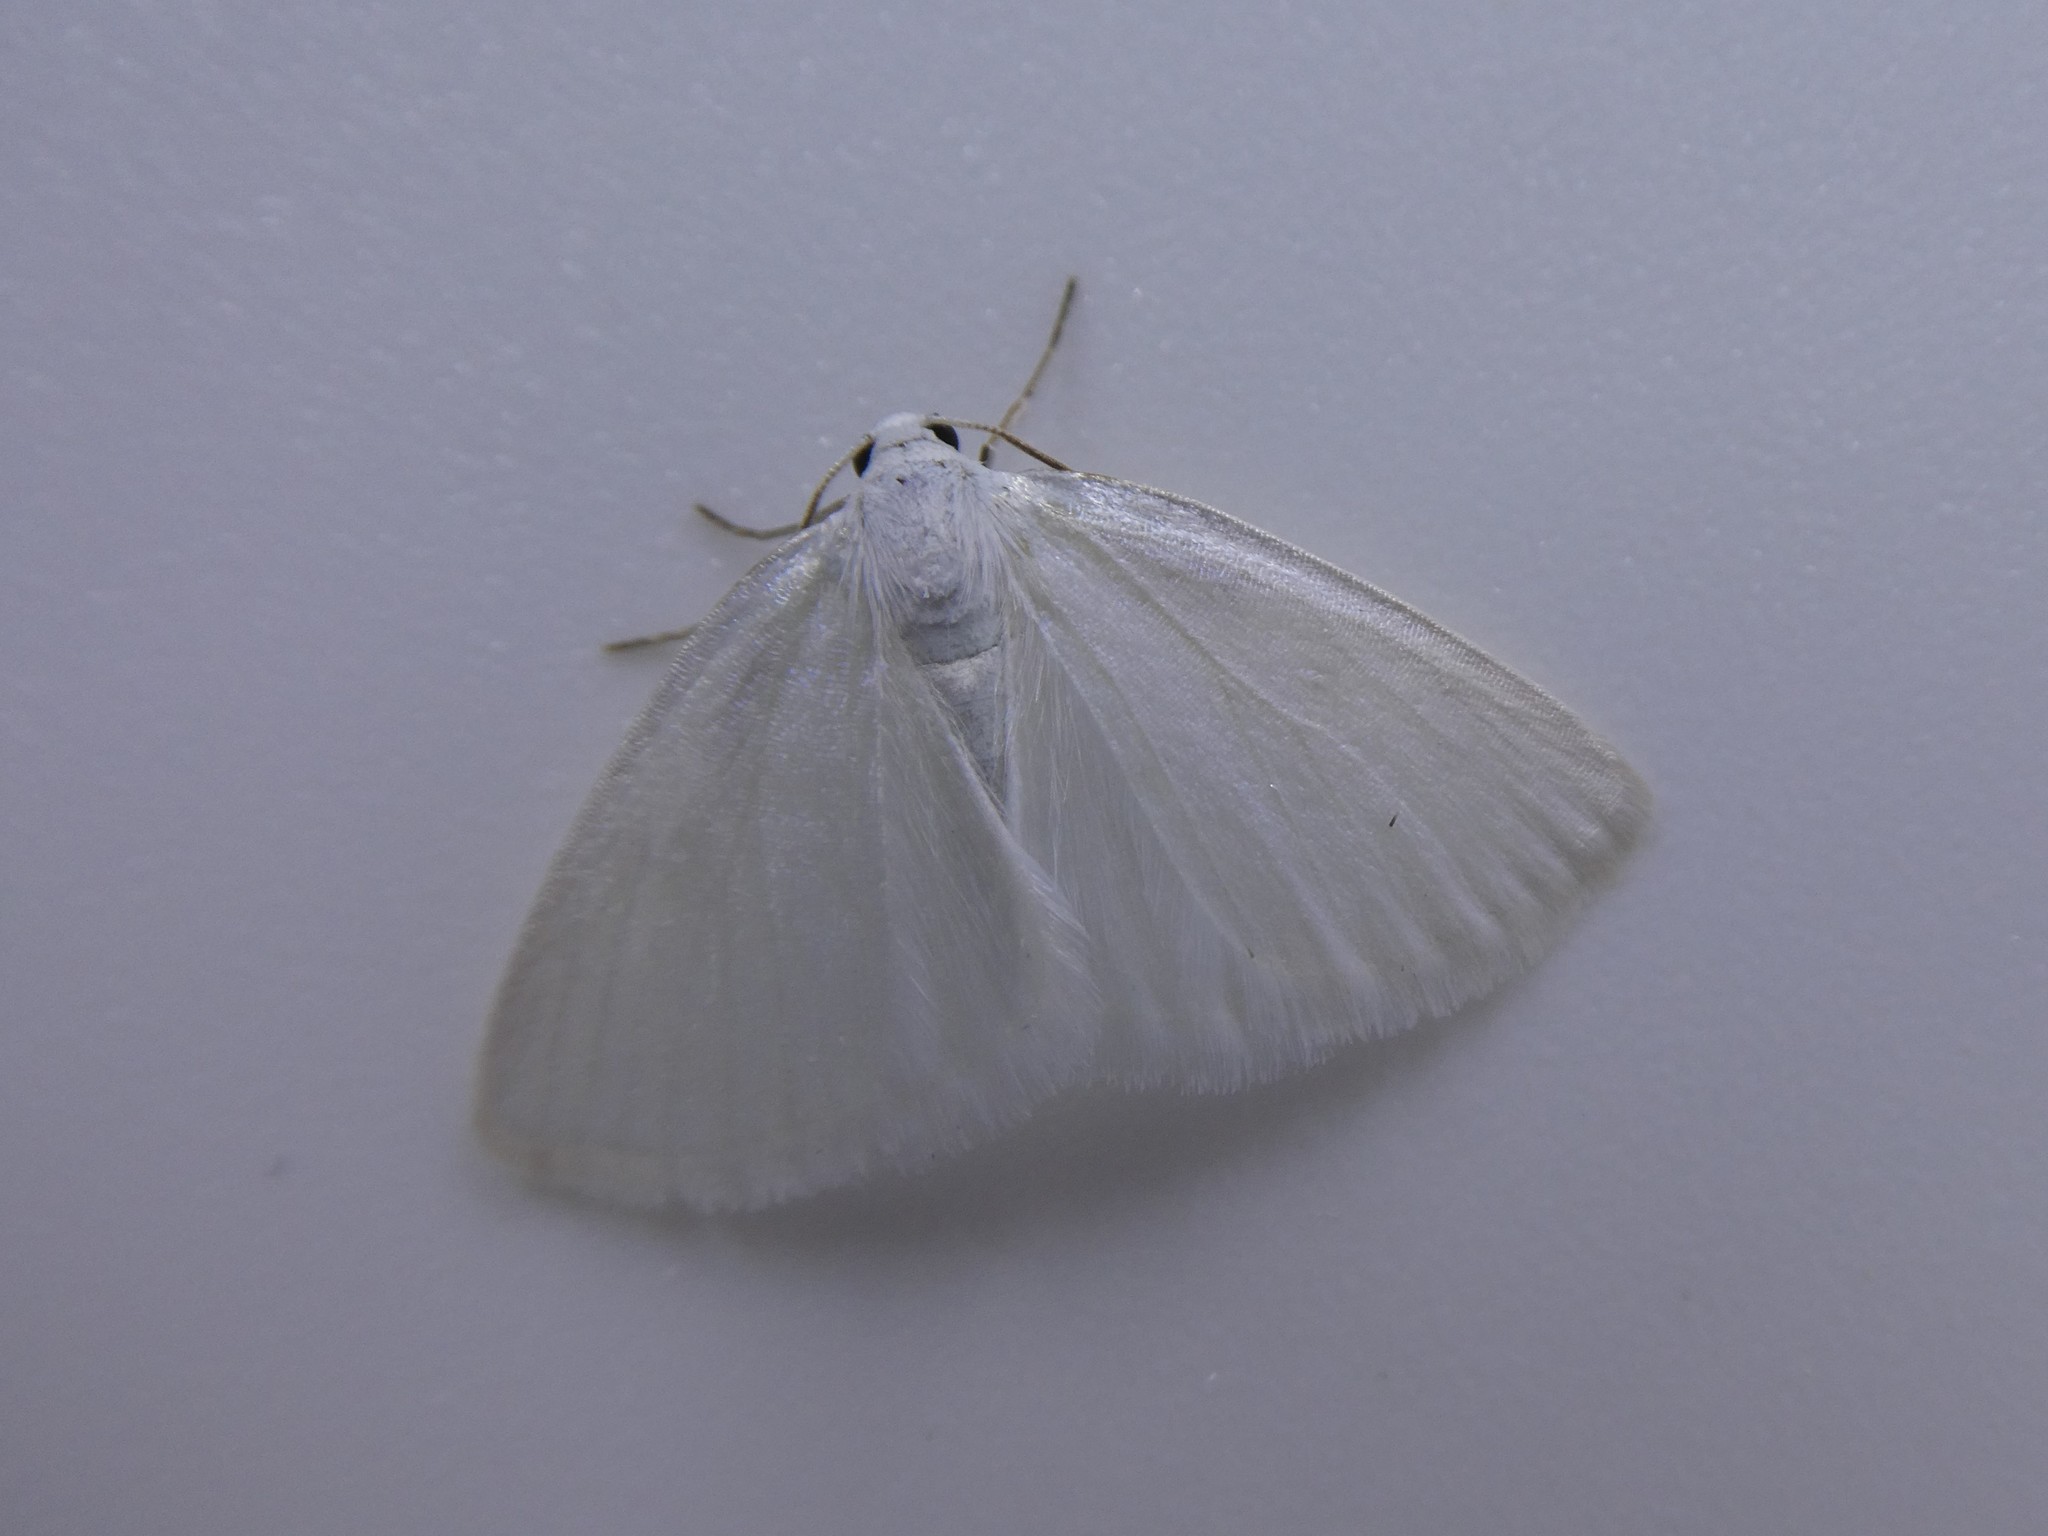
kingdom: Animalia
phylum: Arthropoda
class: Insecta
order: Lepidoptera
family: Geometridae
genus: Lomographa
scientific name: Lomographa vestaliata
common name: White spring moth
